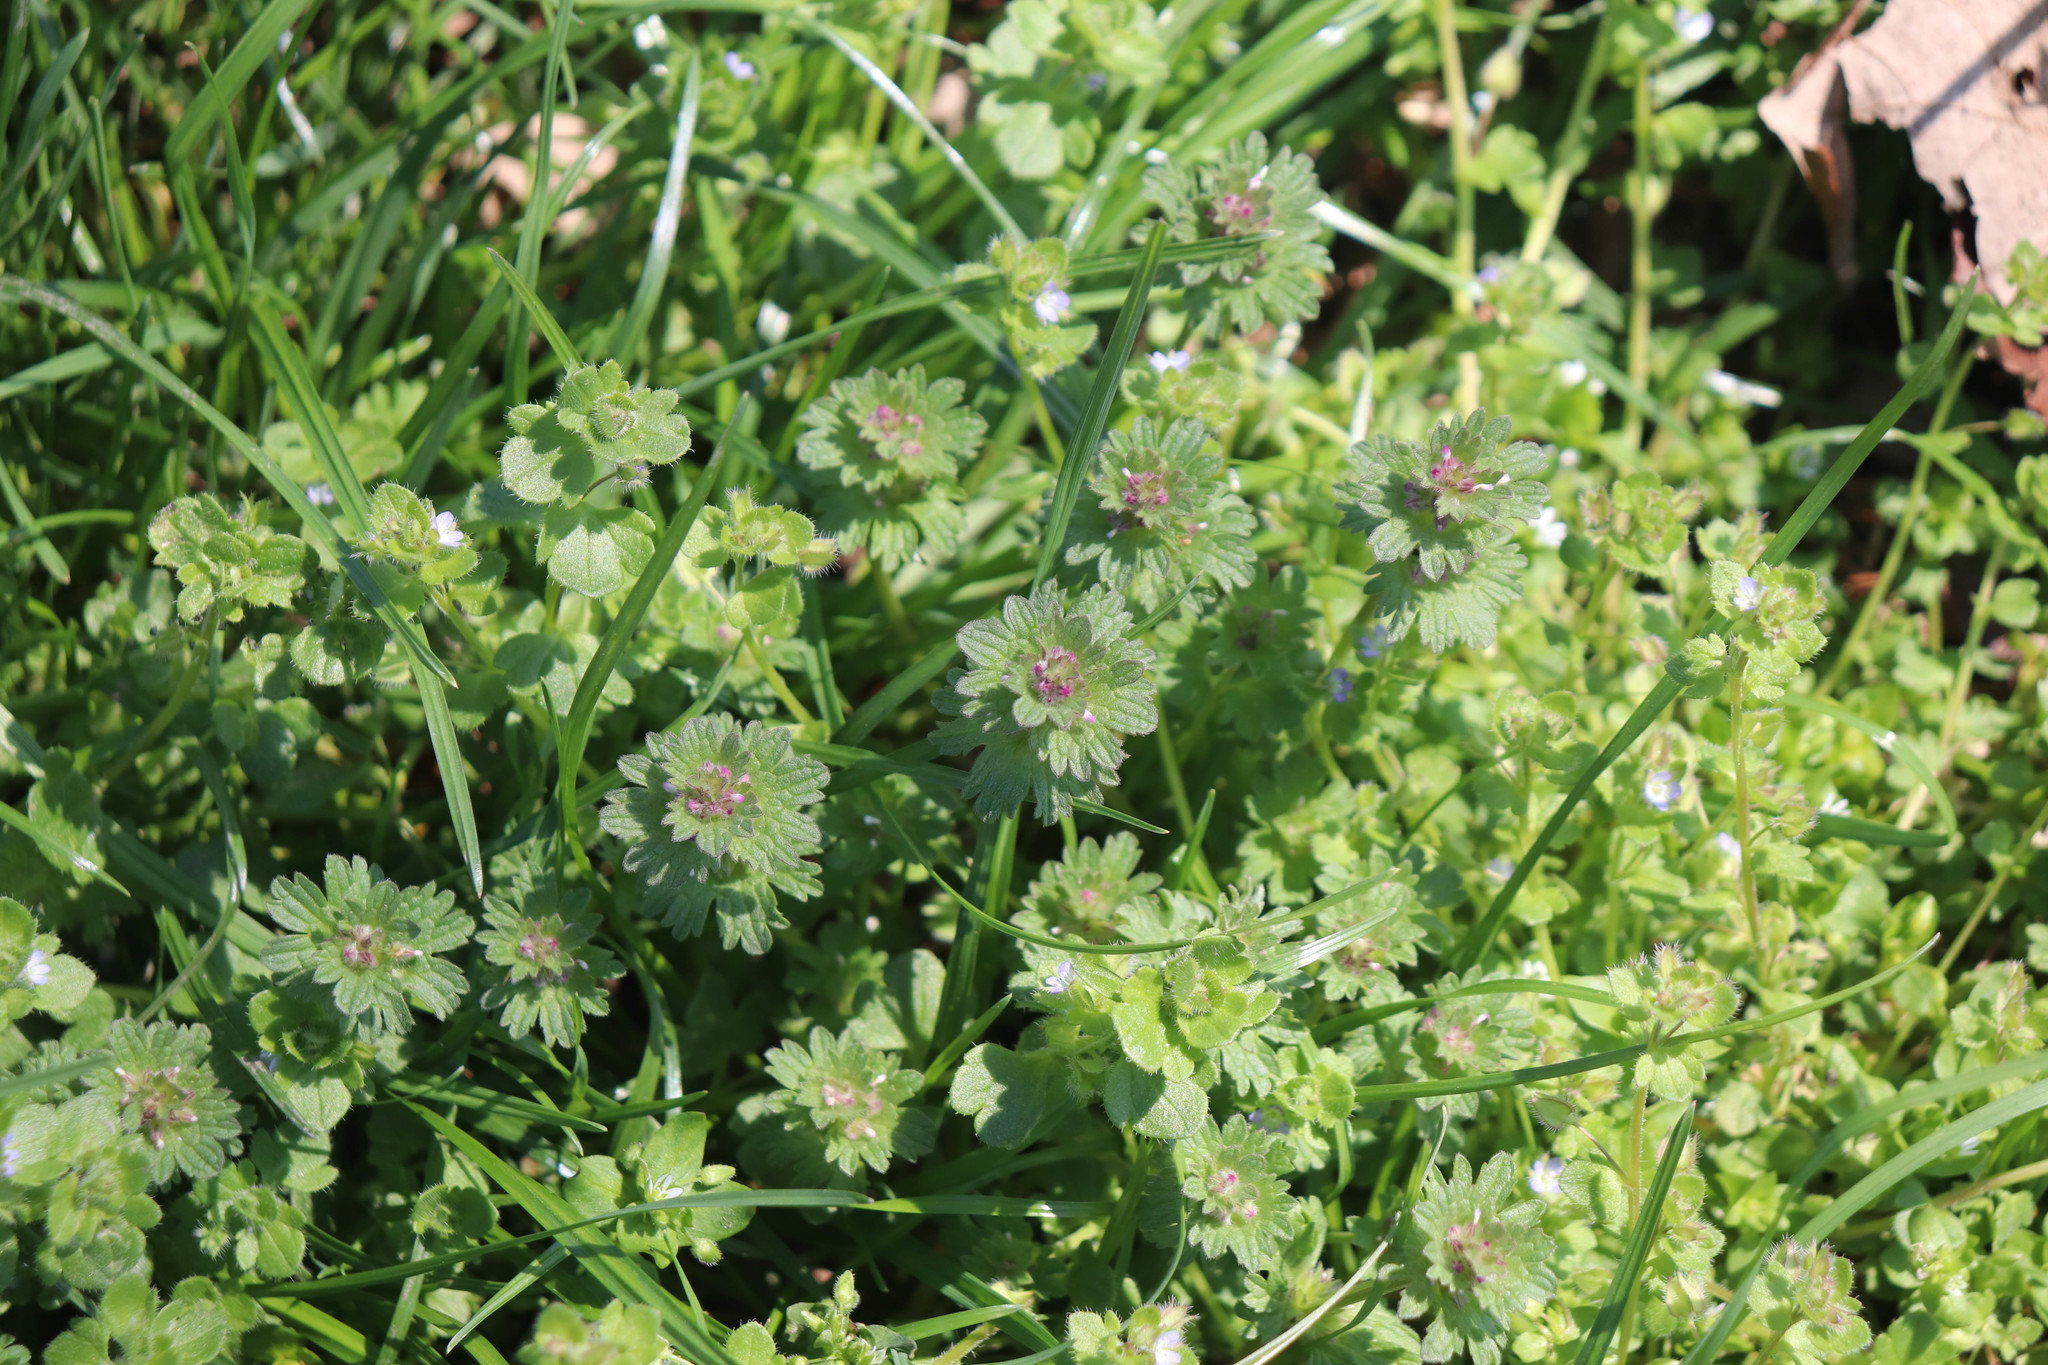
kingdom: Plantae
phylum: Tracheophyta
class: Magnoliopsida
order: Lamiales
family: Lamiaceae
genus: Lamium
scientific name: Lamium amplexicaule
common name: Henbit dead-nettle
